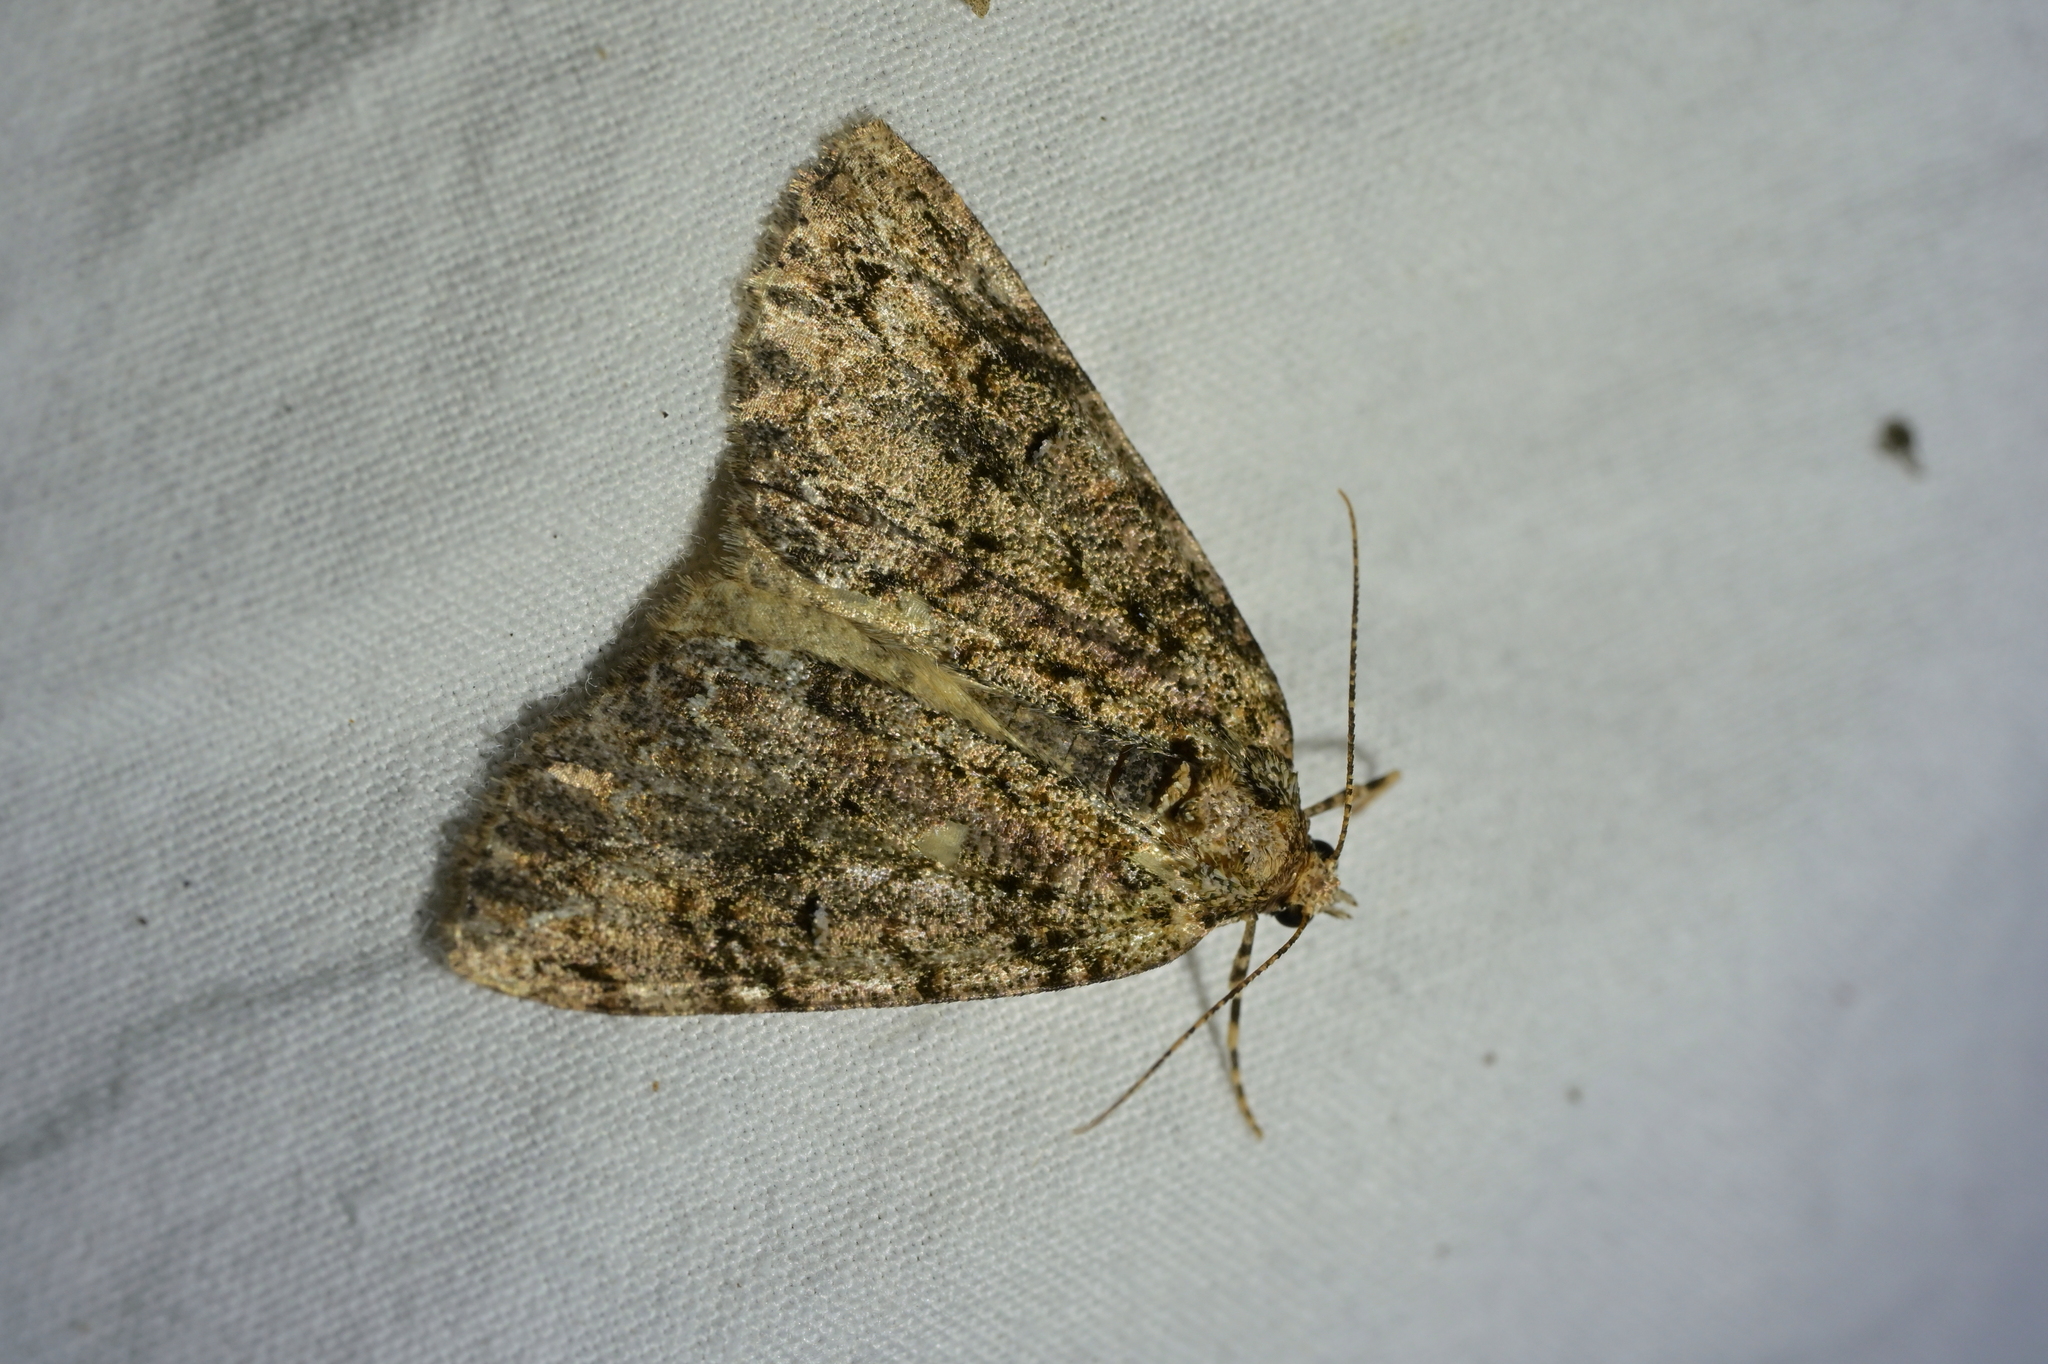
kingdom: Animalia
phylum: Arthropoda
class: Insecta
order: Lepidoptera
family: Geometridae
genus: Pseudocoremia
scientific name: Pseudocoremia suavis
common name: Common forest looper
